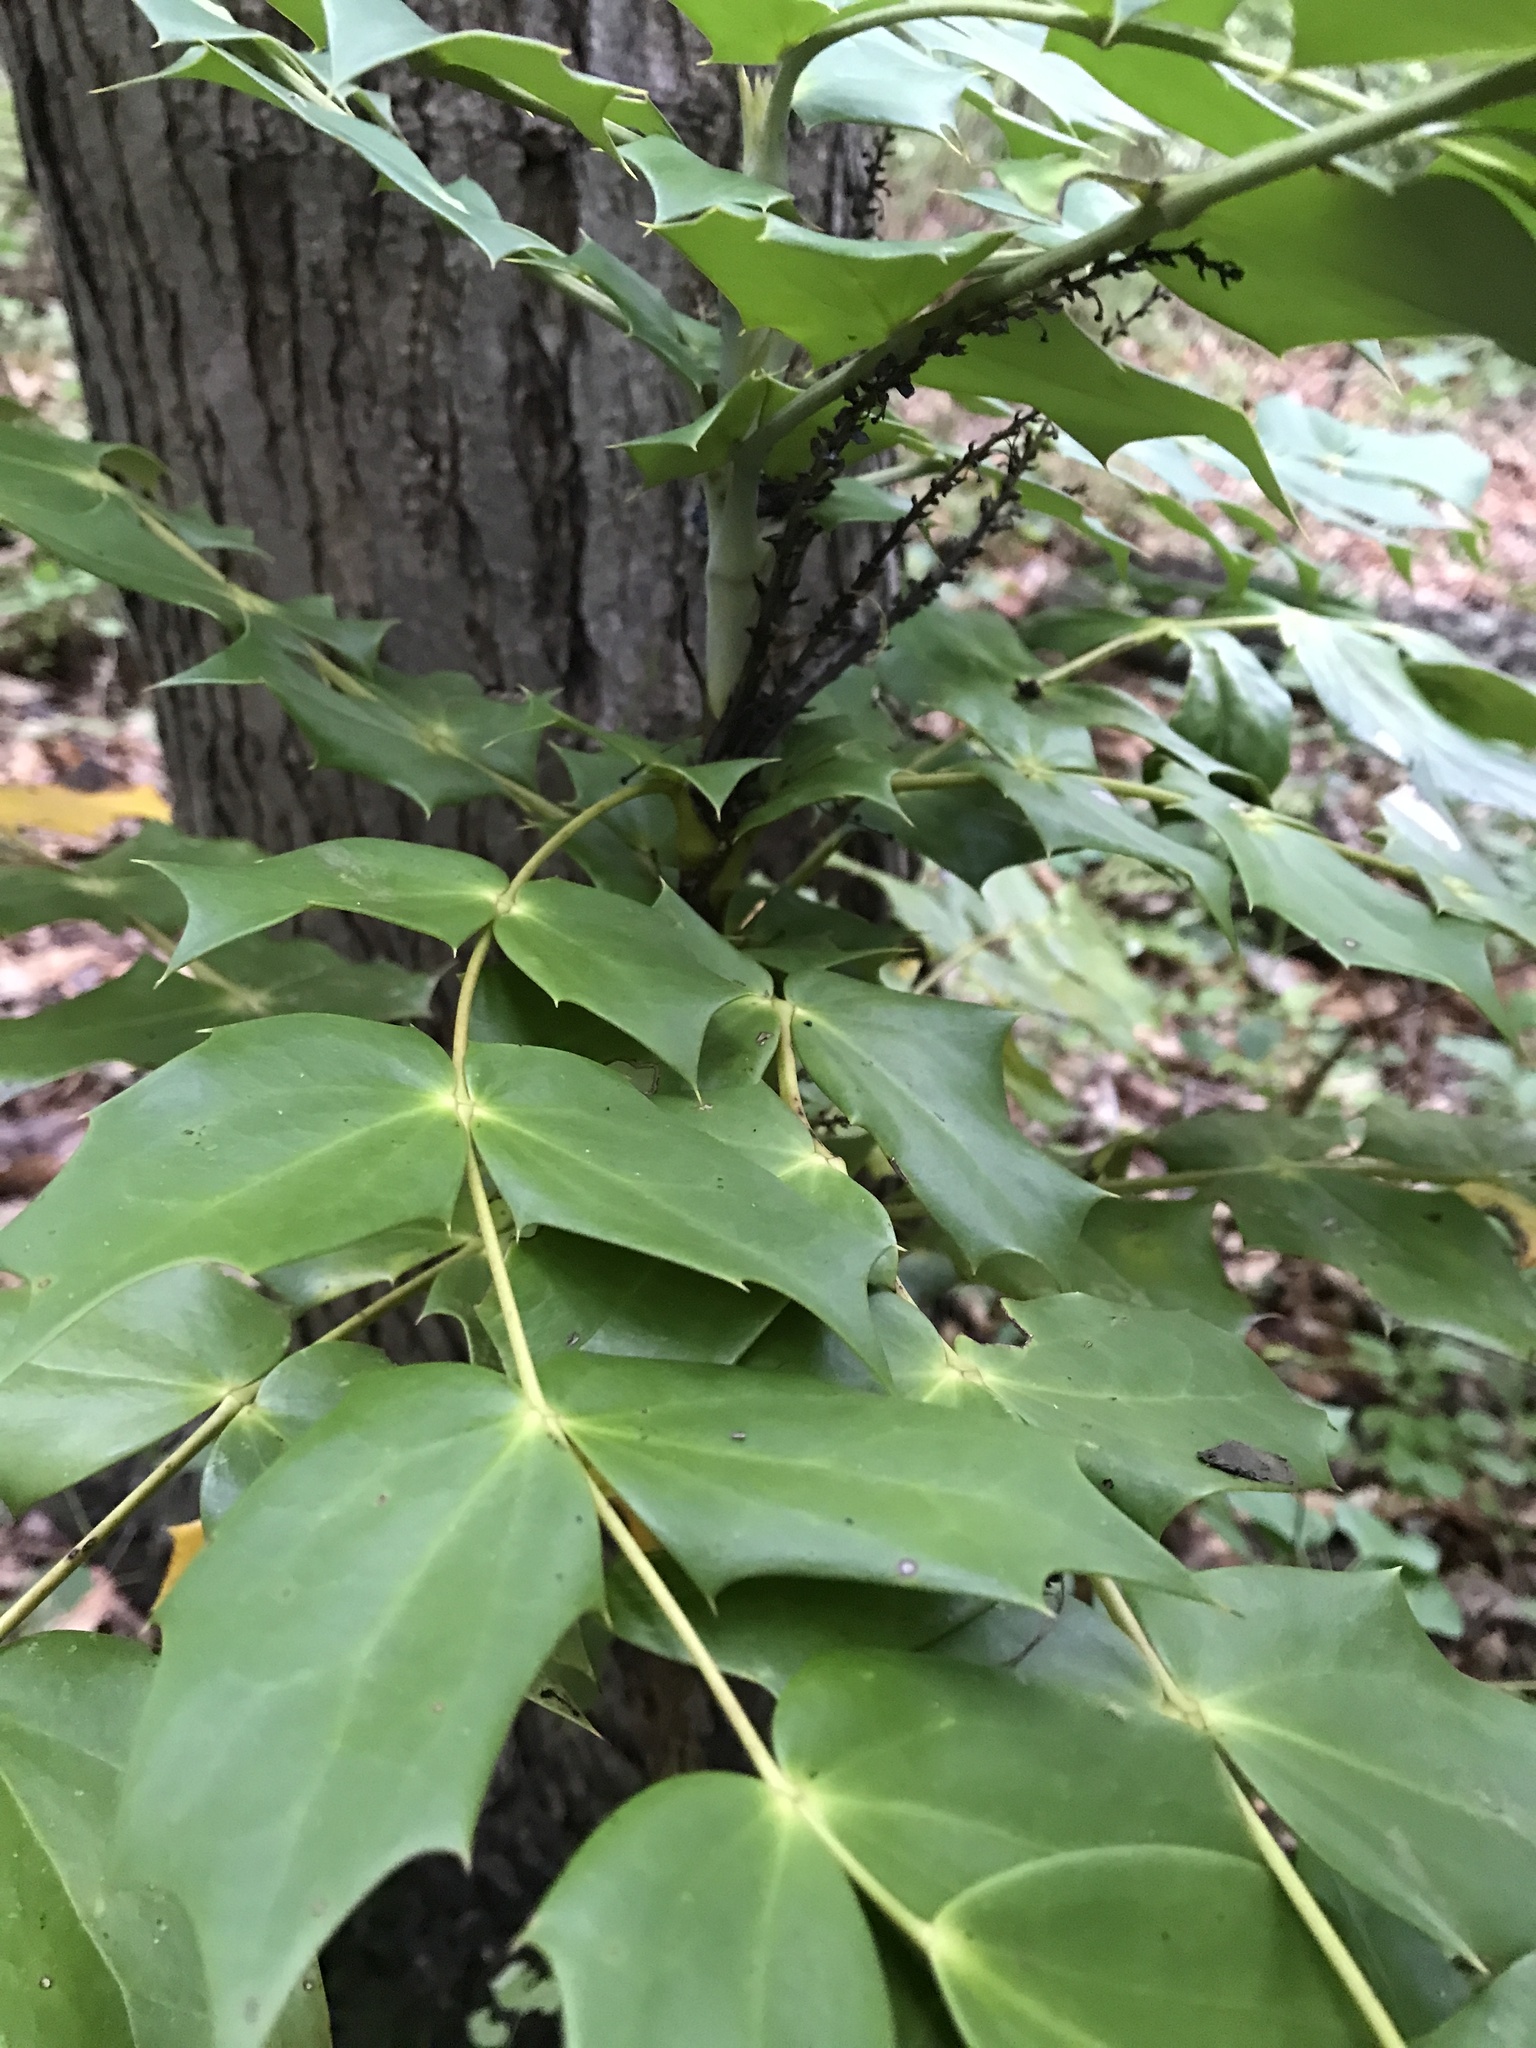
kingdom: Plantae
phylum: Tracheophyta
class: Magnoliopsida
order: Ranunculales
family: Berberidaceae
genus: Mahonia
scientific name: Mahonia bealei
